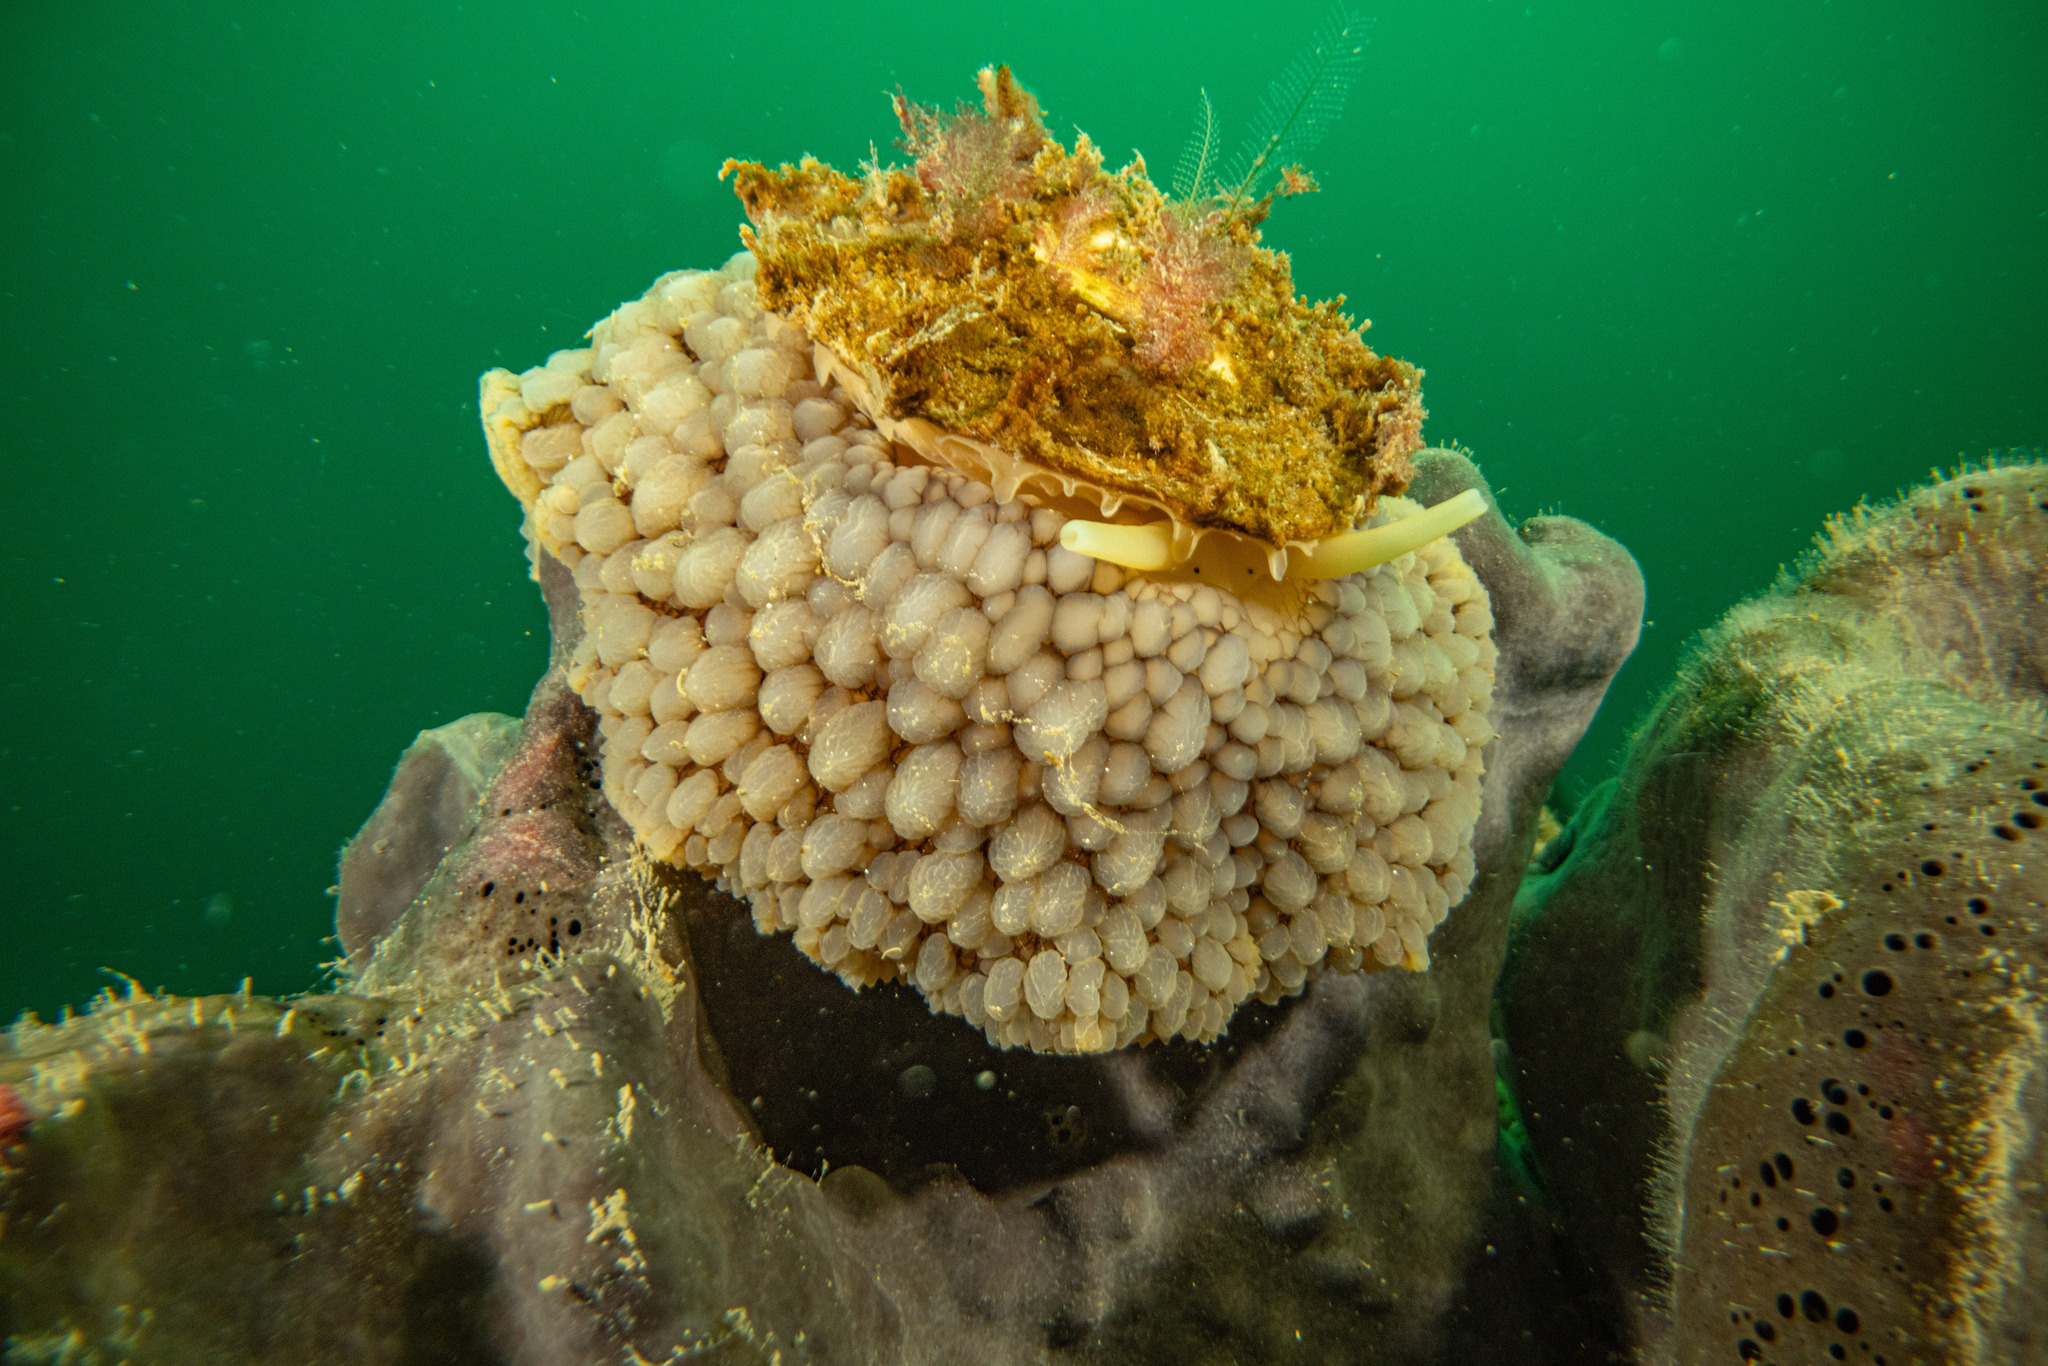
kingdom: Animalia
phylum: Mollusca
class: Gastropoda
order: Umbraculida
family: Umbraculidae
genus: Umbraculum
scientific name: Umbraculum umbraculum
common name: Atlantic umbrella slug
